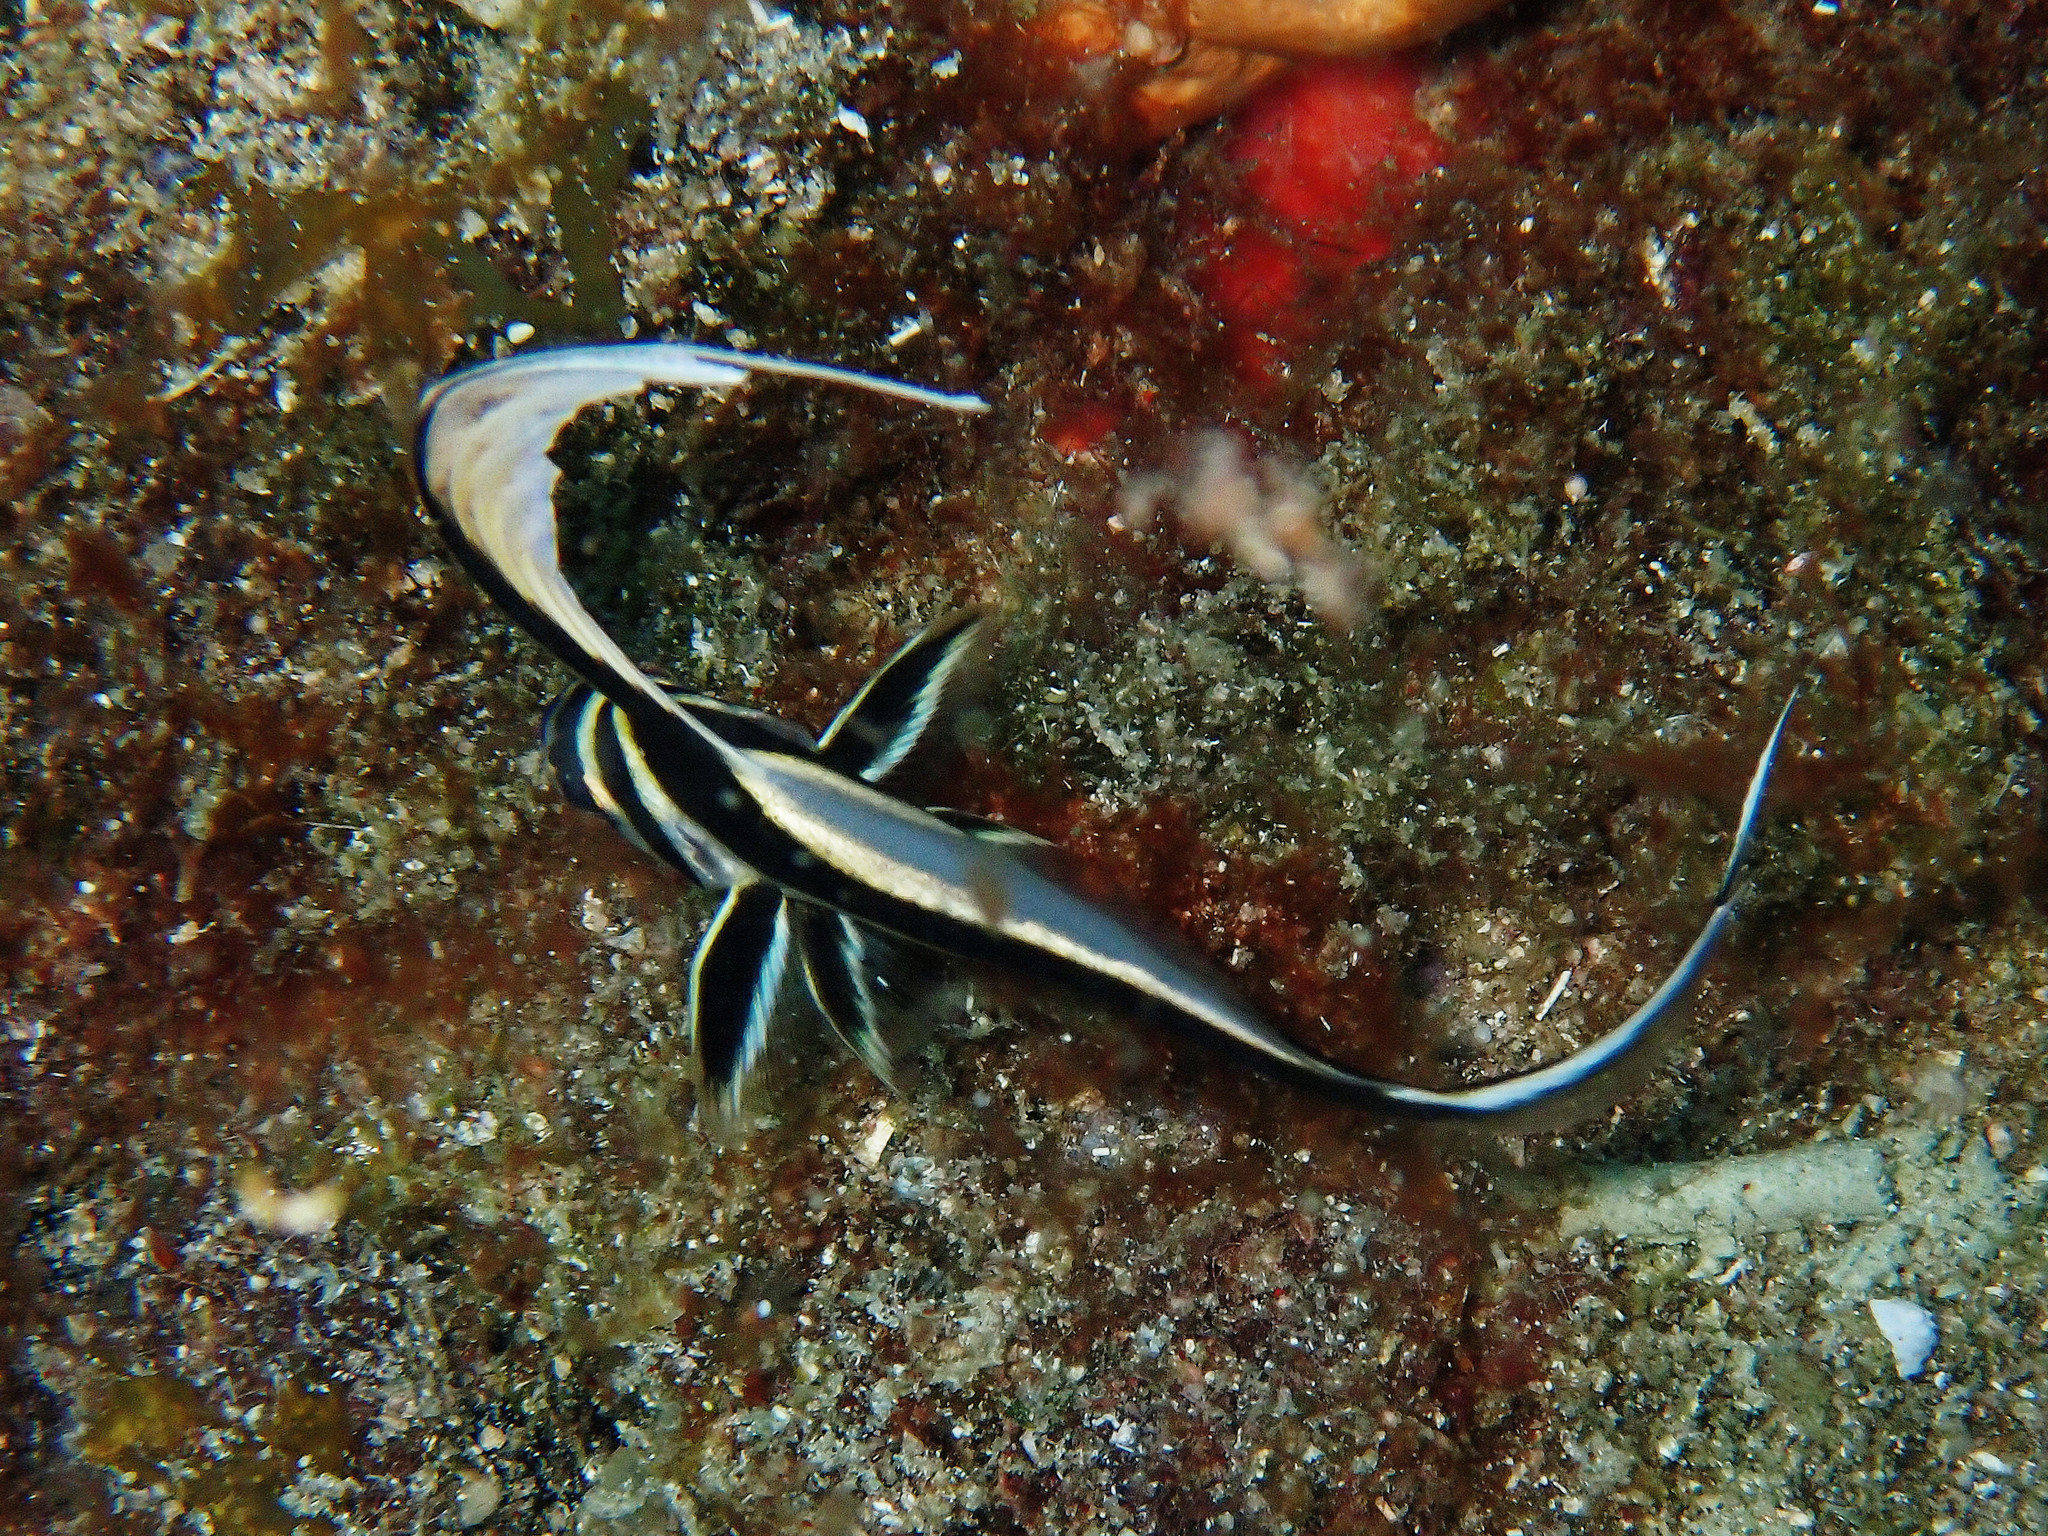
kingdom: Animalia
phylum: Chordata
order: Perciformes
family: Sciaenidae
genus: Equetus
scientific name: Equetus punctatus
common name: Spotted drum
